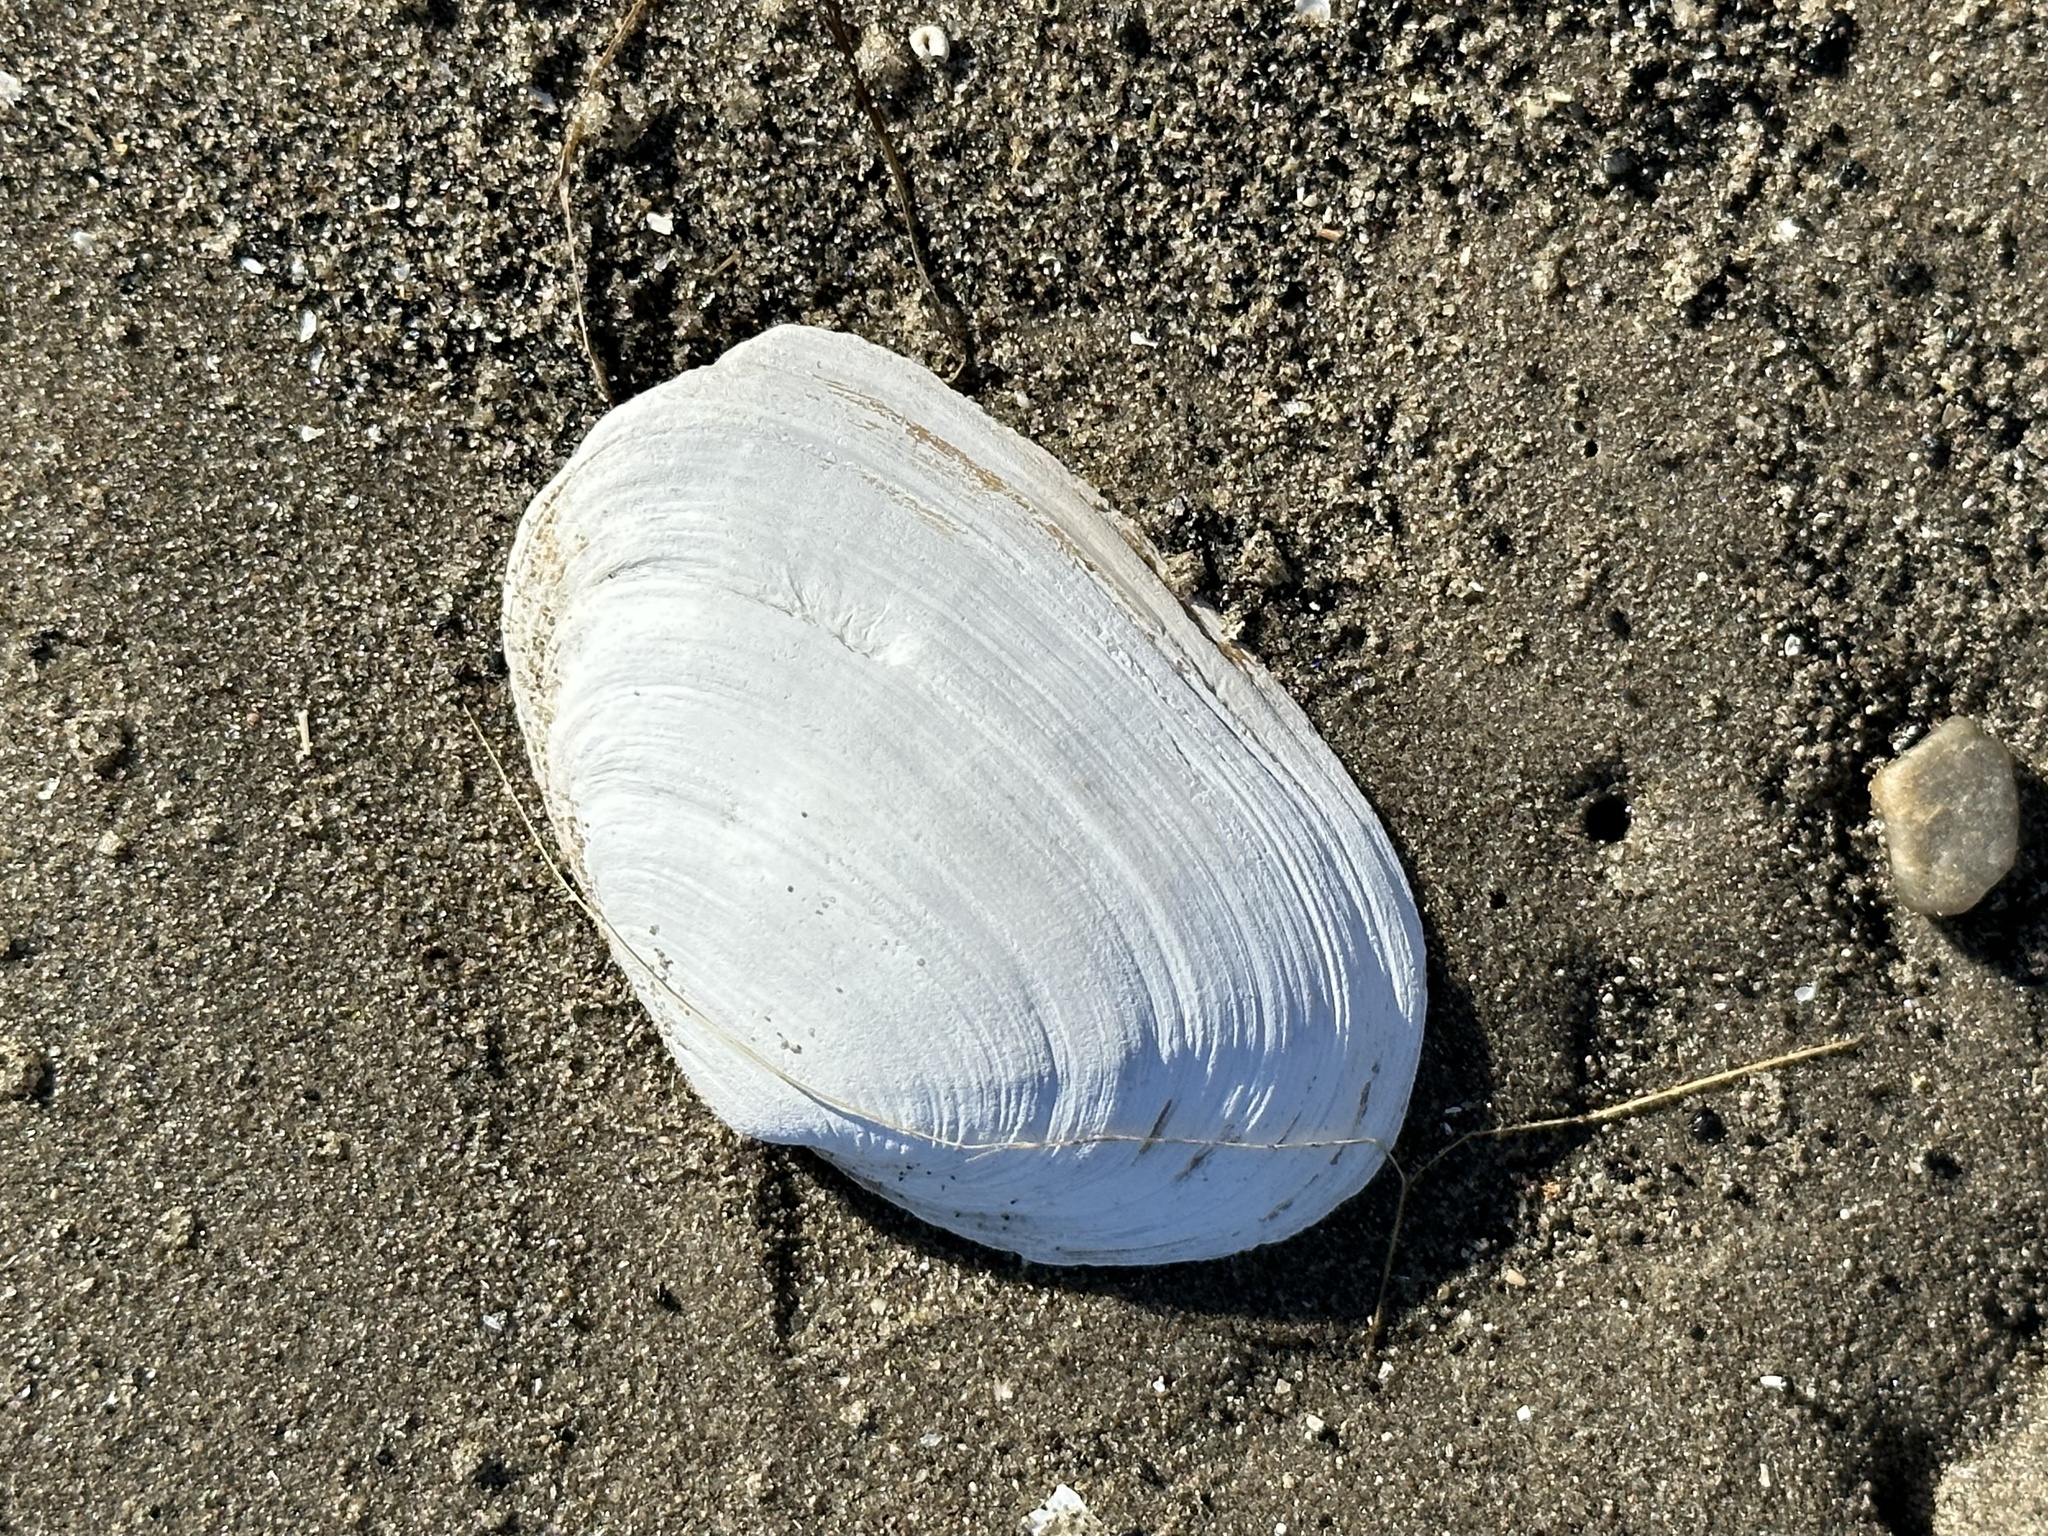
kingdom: Animalia
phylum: Mollusca
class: Bivalvia
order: Myida
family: Myidae
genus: Mya
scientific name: Mya arenaria
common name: Soft-shelled clam
